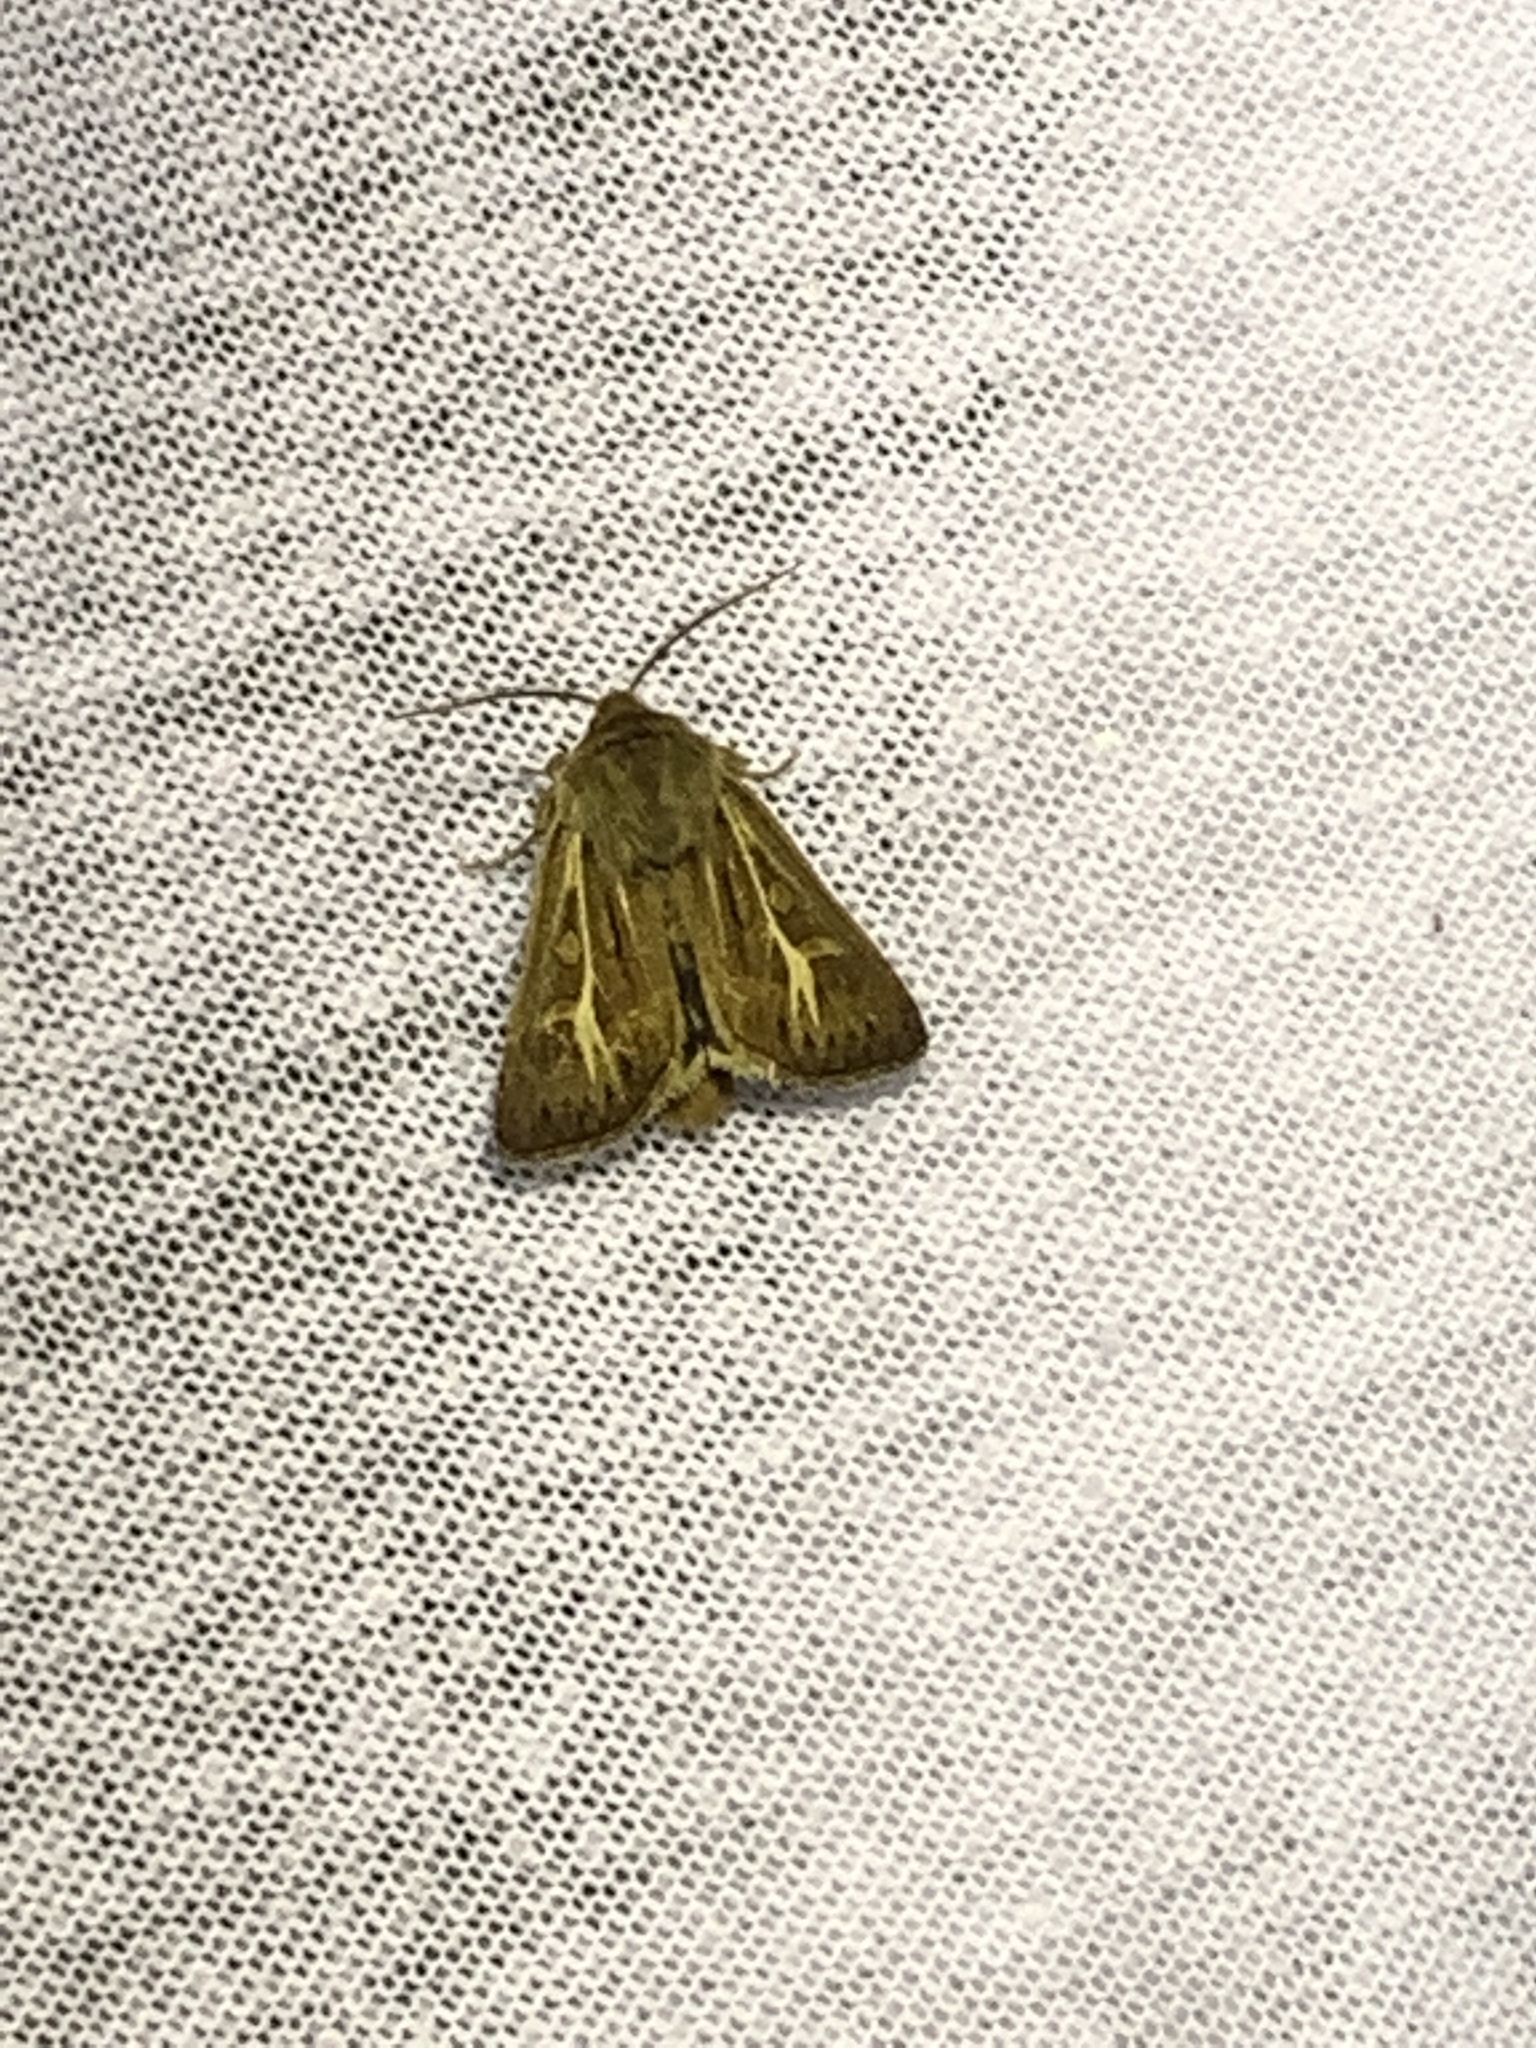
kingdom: Animalia
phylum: Arthropoda
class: Insecta
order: Lepidoptera
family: Noctuidae
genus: Cerapteryx
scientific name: Cerapteryx graminis
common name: Antler moth
